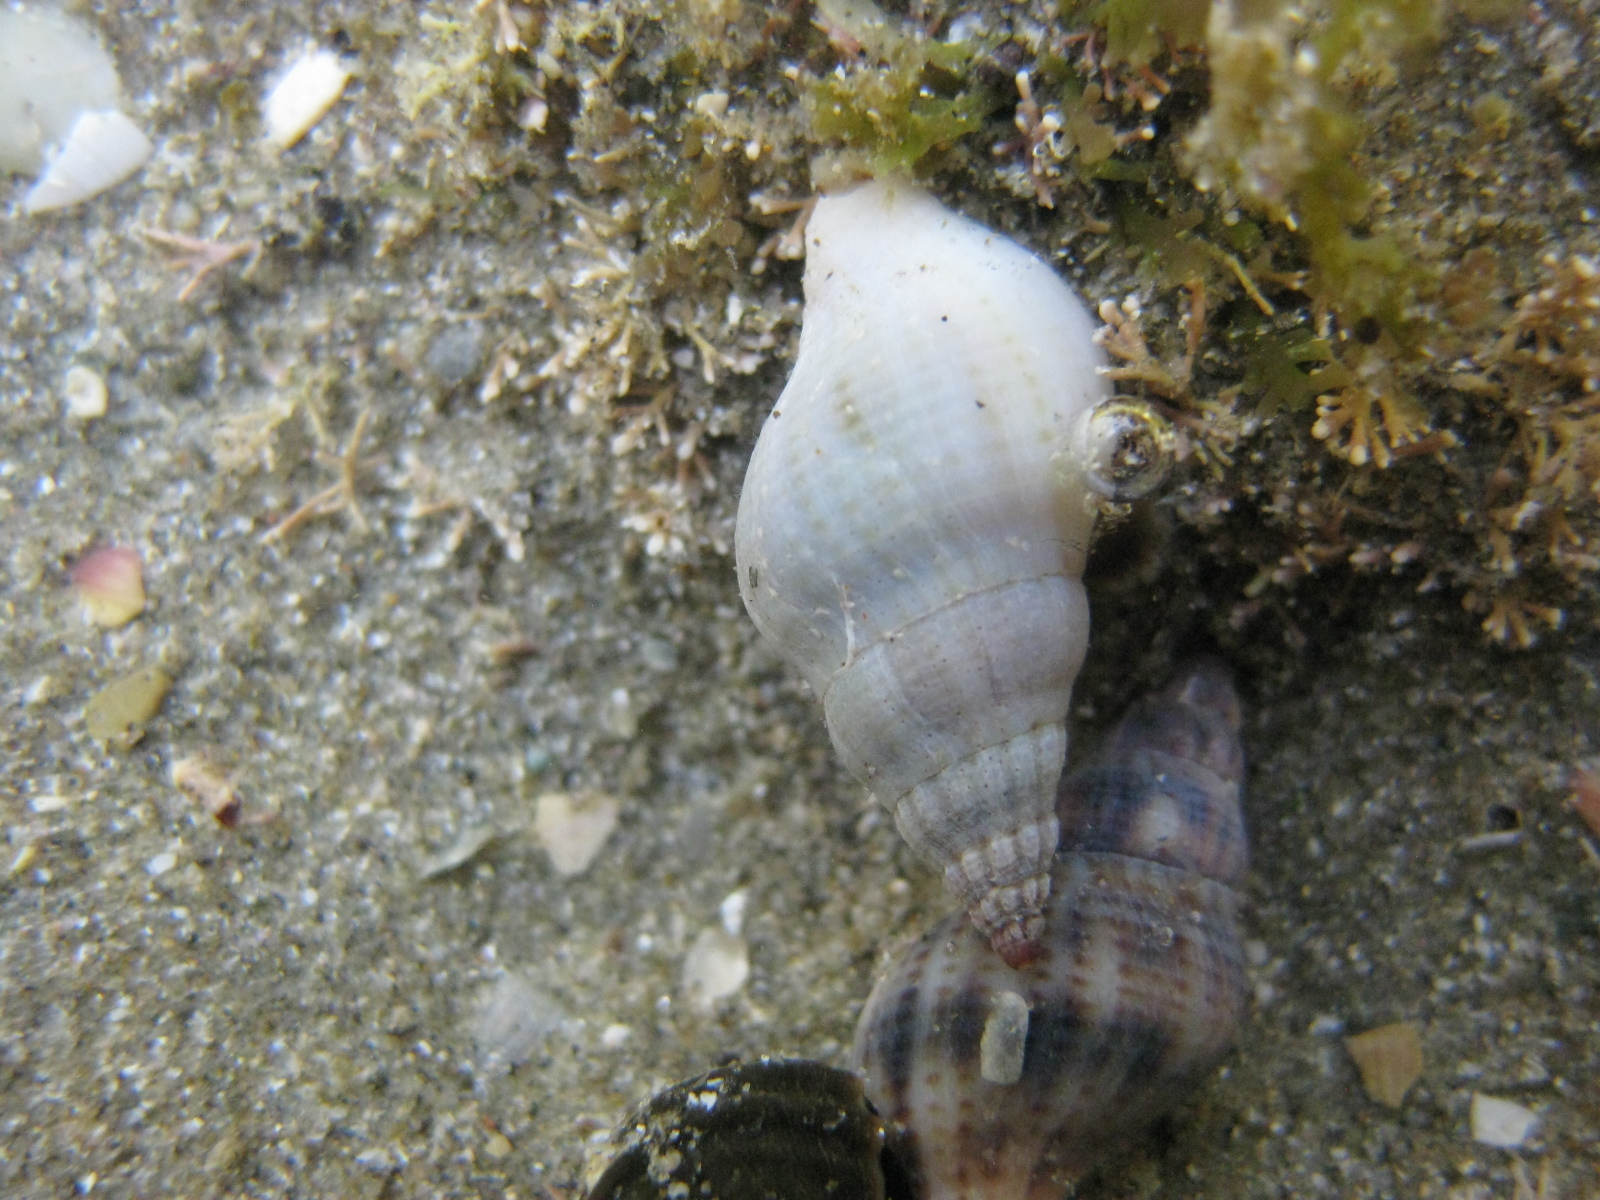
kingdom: Animalia
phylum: Mollusca
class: Gastropoda
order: Neogastropoda
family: Tudiclidae
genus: Buccinulum
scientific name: Buccinulum vittatum
